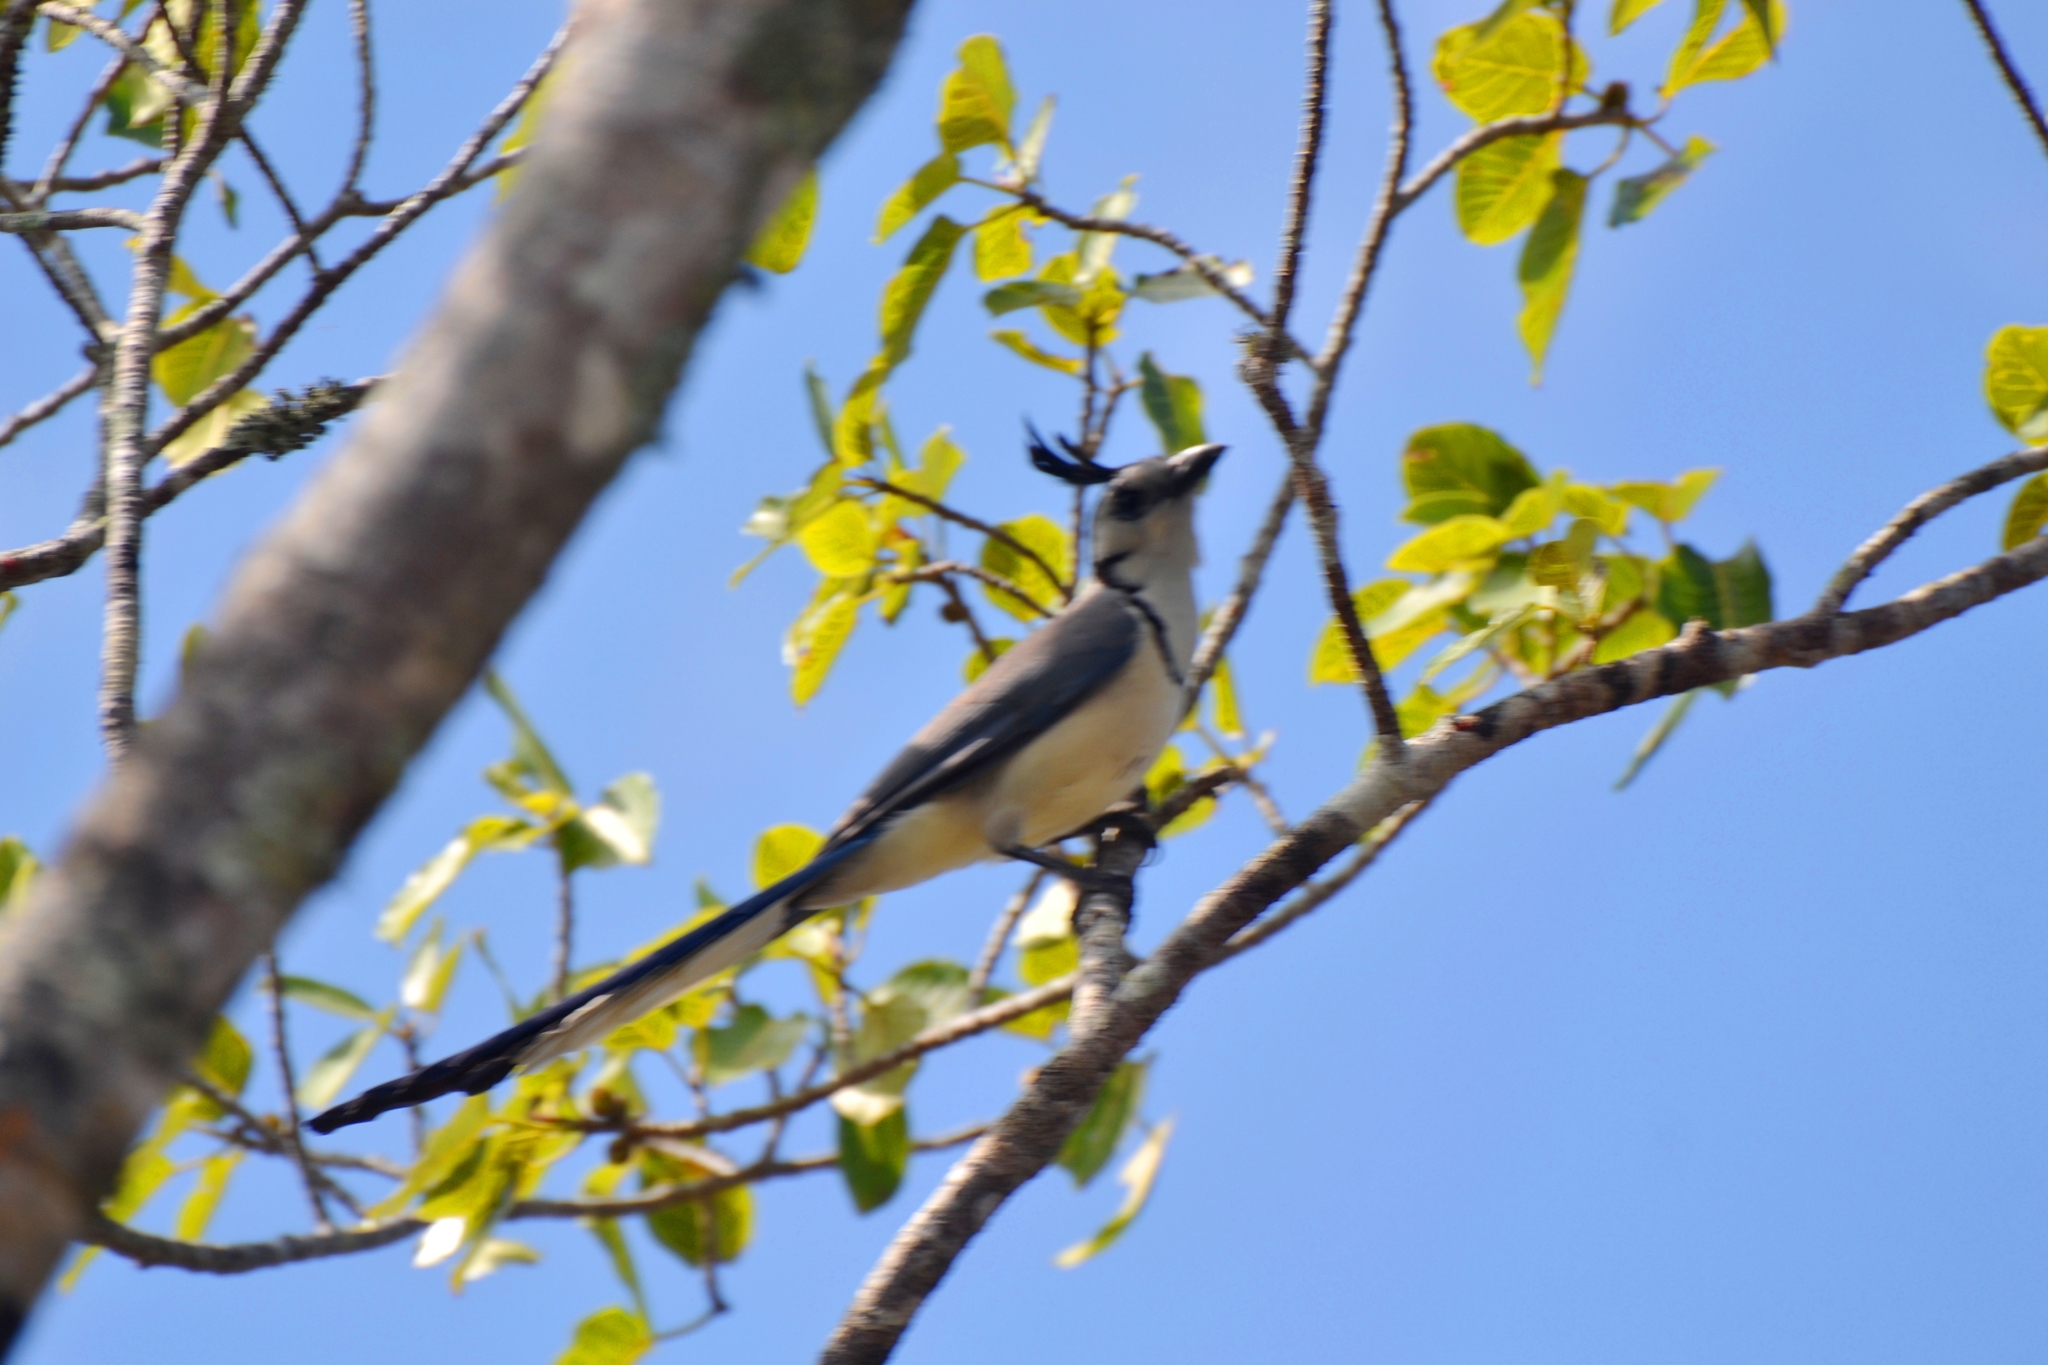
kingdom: Animalia
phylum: Chordata
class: Aves
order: Passeriformes
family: Corvidae
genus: Calocitta
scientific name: Calocitta formosa
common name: White-throated magpie-jay
